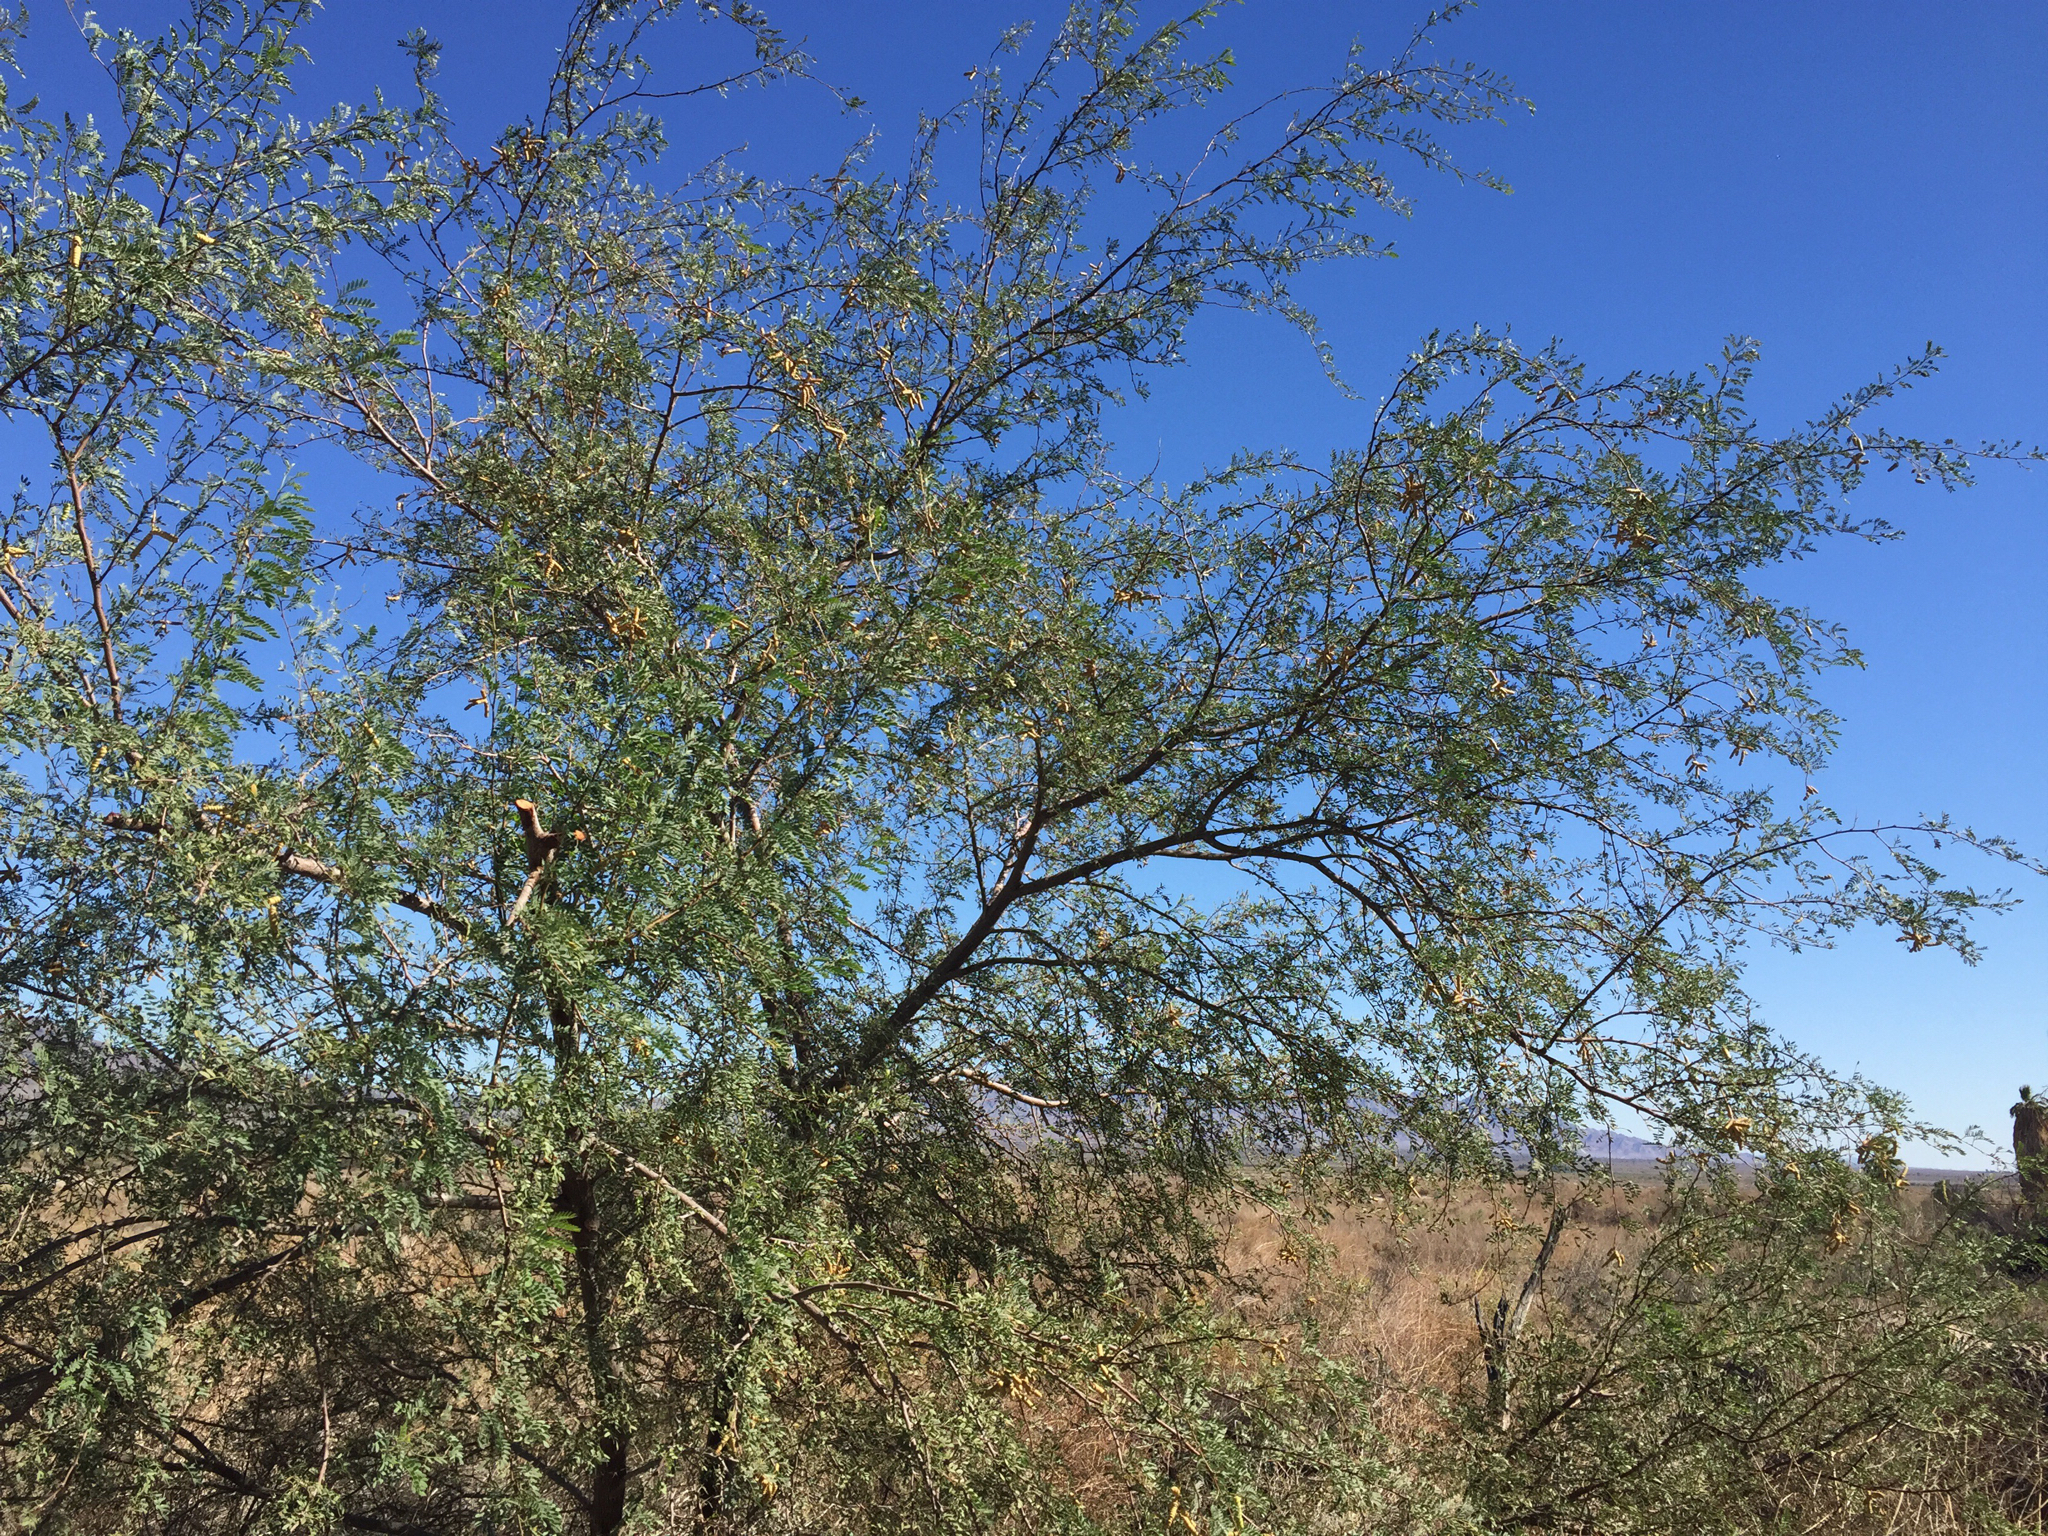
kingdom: Plantae
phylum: Tracheophyta
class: Magnoliopsida
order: Fabales
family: Fabaceae
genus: Prosopis
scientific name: Prosopis pubescens
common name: Screw-bean
